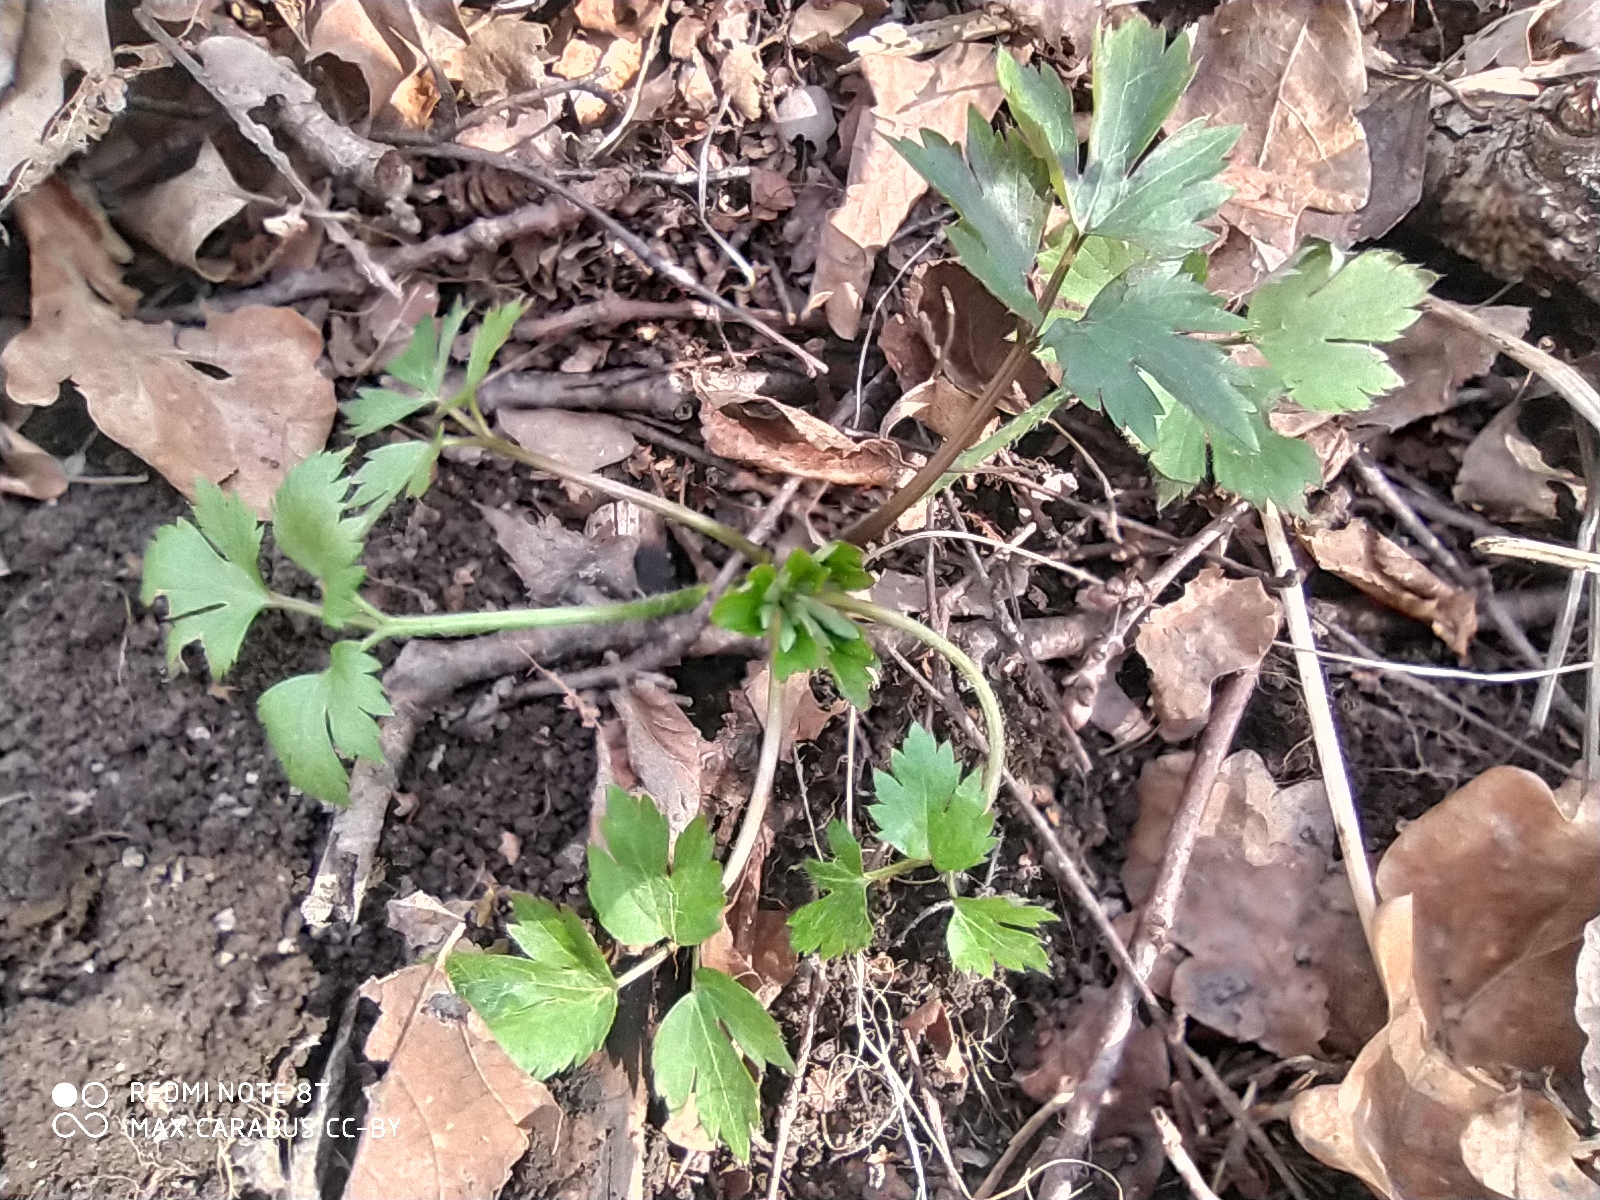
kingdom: Plantae
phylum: Tracheophyta
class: Magnoliopsida
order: Ranunculales
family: Ranunculaceae
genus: Ranunculus
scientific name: Ranunculus repens
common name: Creeping buttercup
